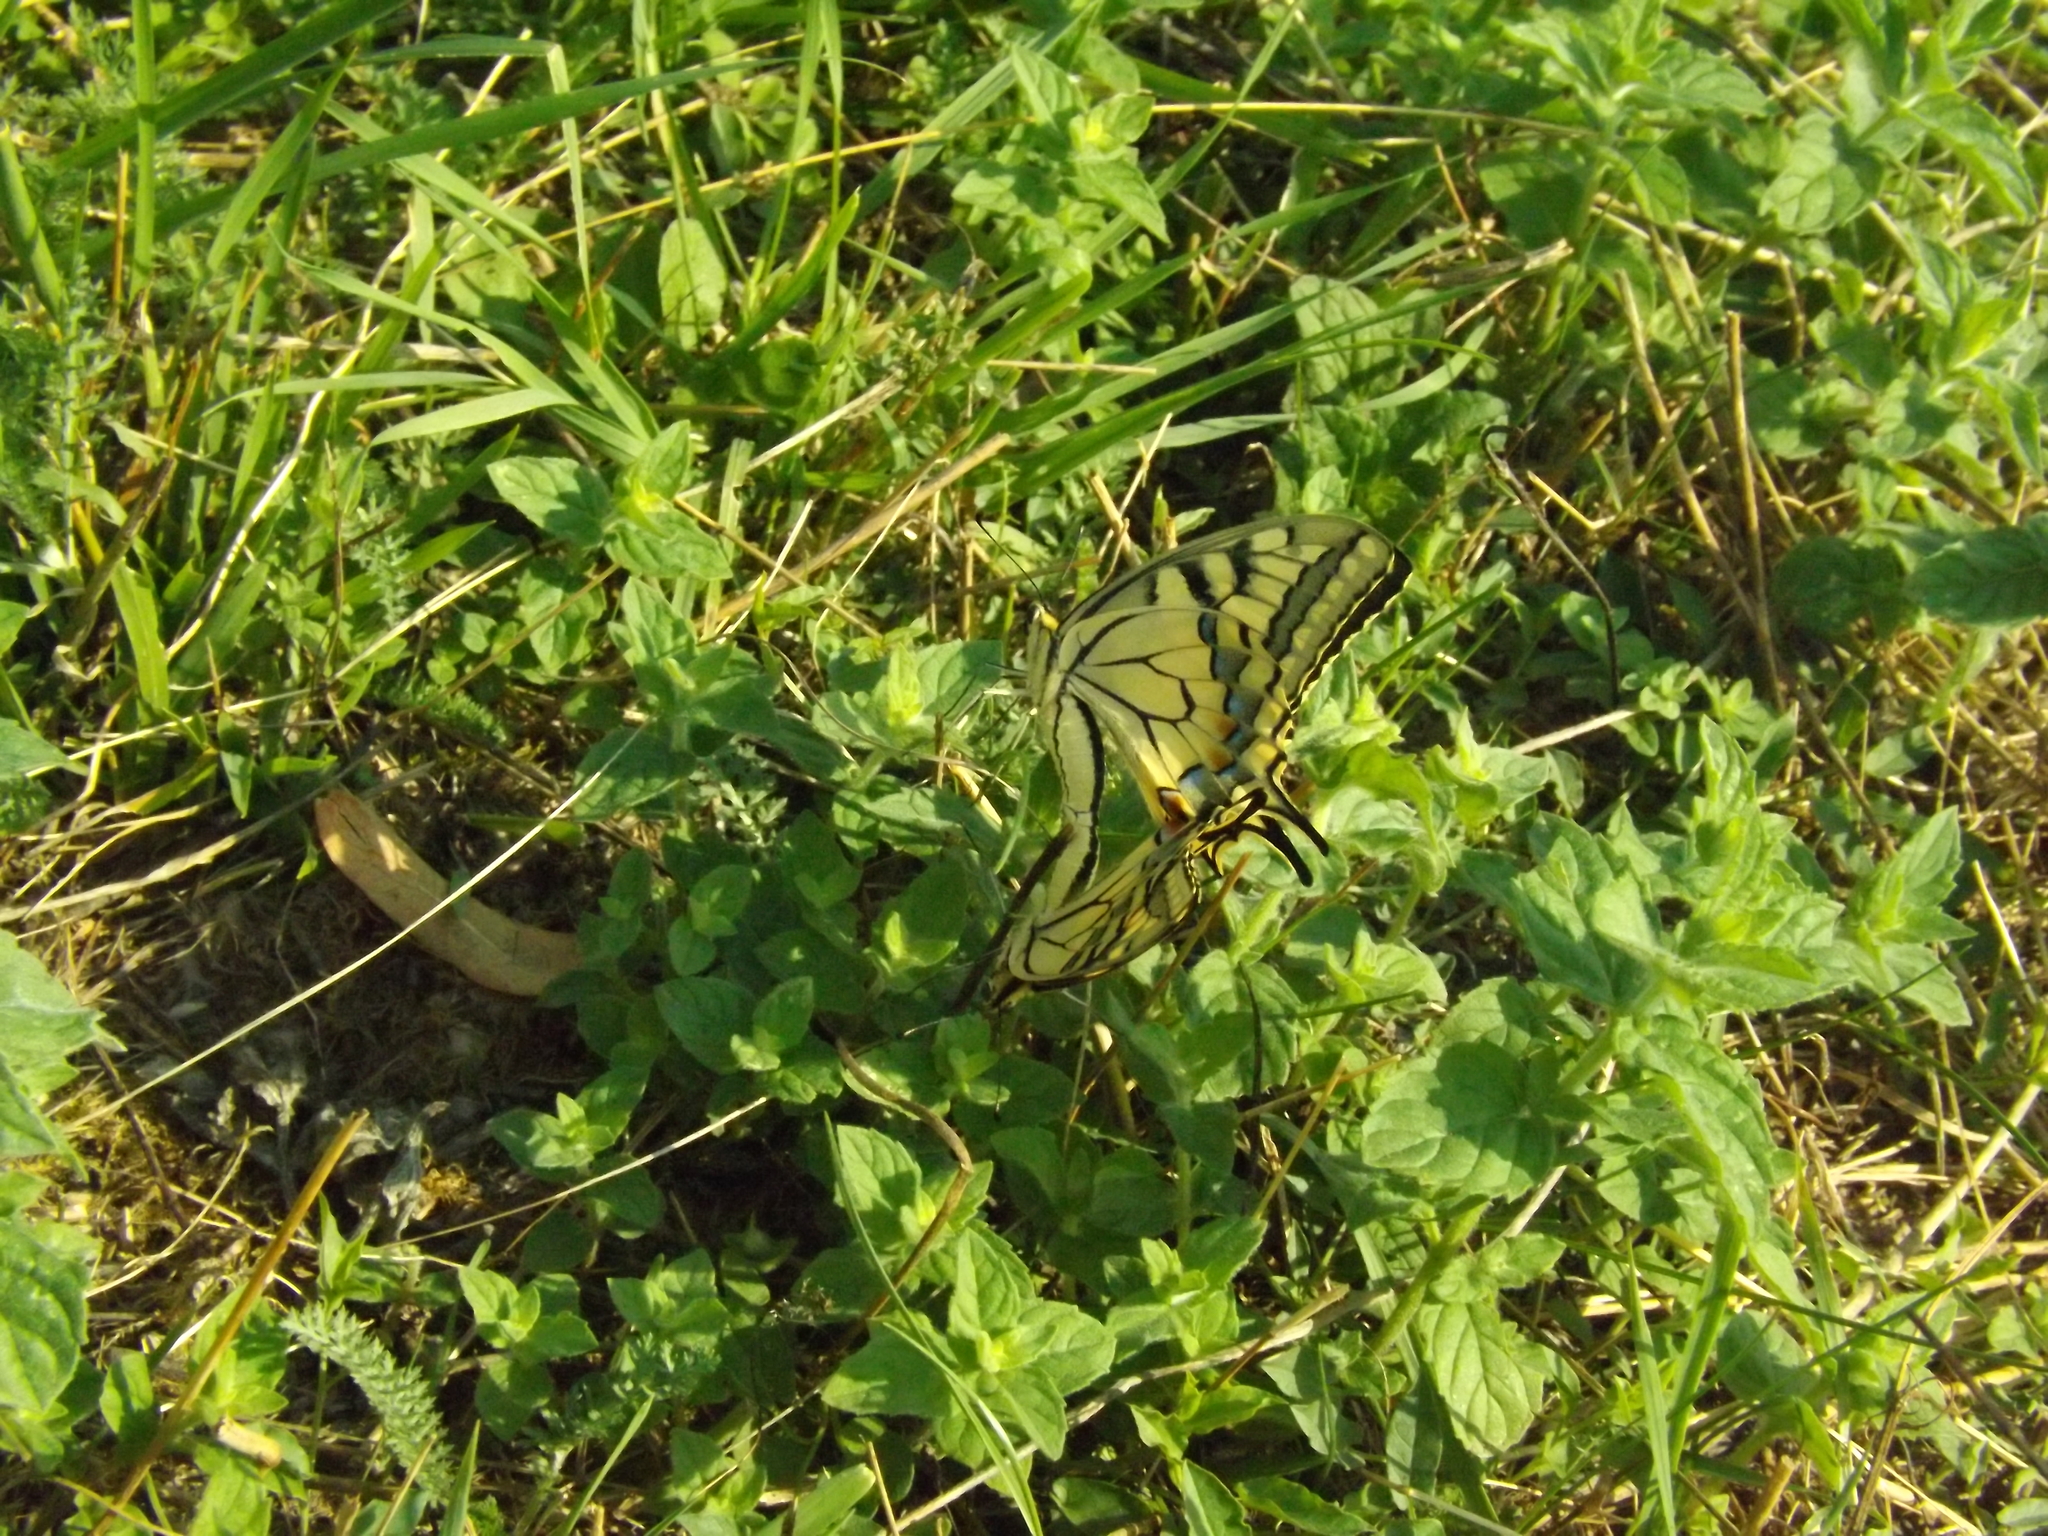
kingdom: Animalia
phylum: Arthropoda
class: Insecta
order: Lepidoptera
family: Papilionidae
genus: Papilio
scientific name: Papilio machaon
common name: Swallowtail
